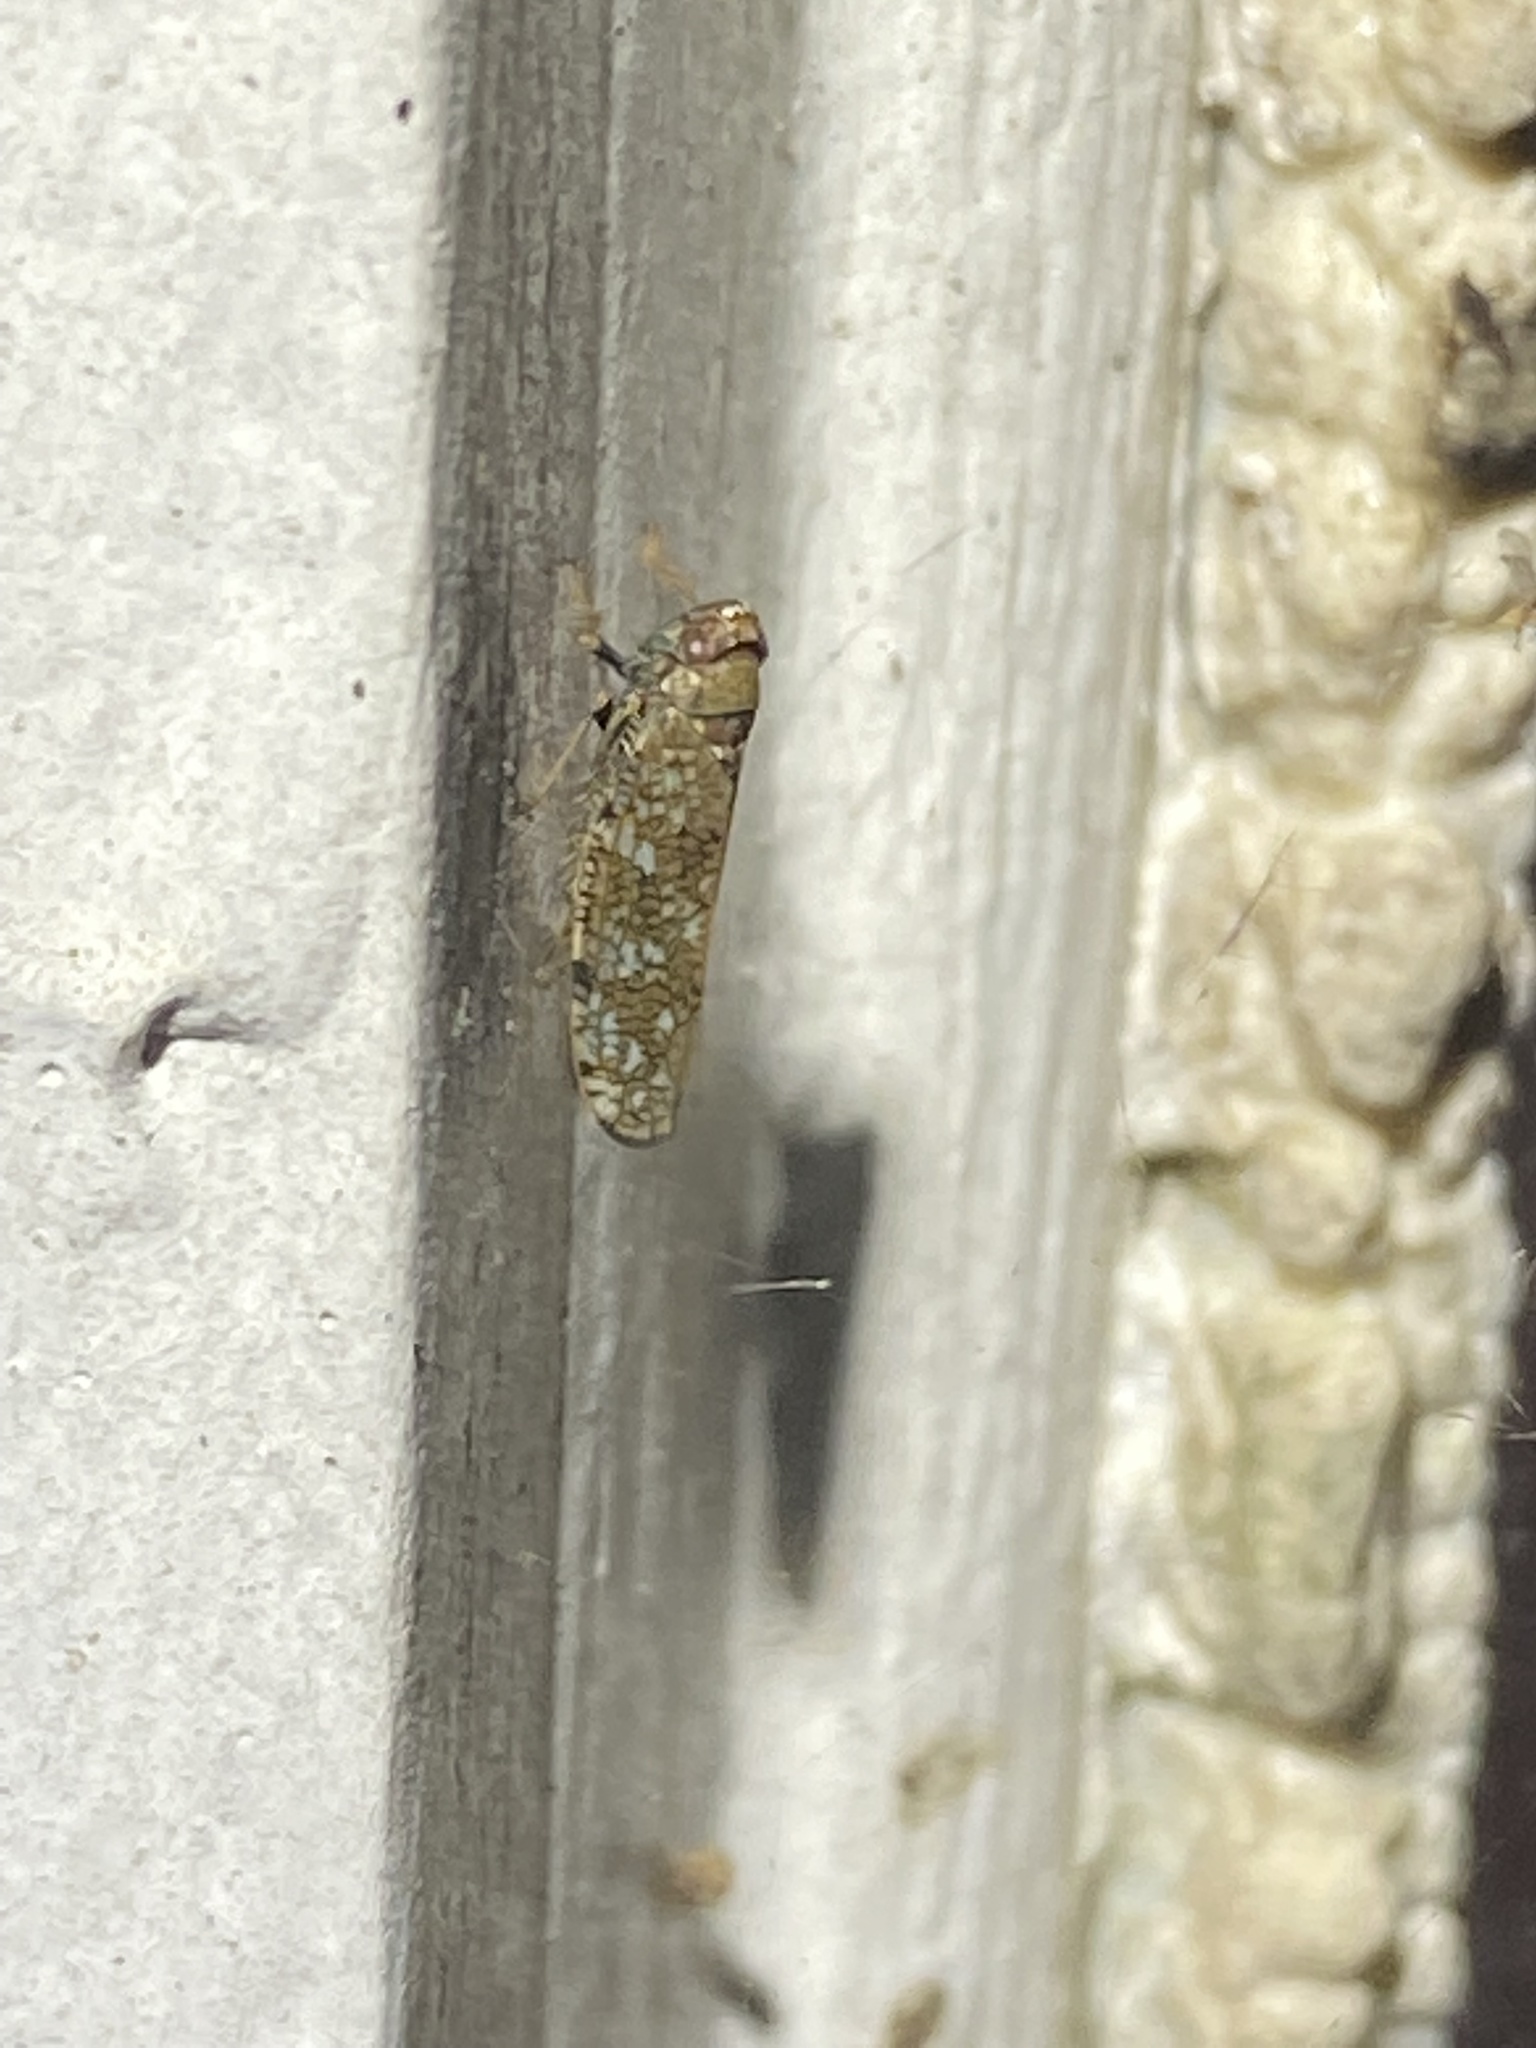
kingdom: Animalia
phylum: Arthropoda
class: Insecta
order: Hemiptera
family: Cicadellidae
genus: Orientus
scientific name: Orientus ishidae
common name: Japanese leafhopper
